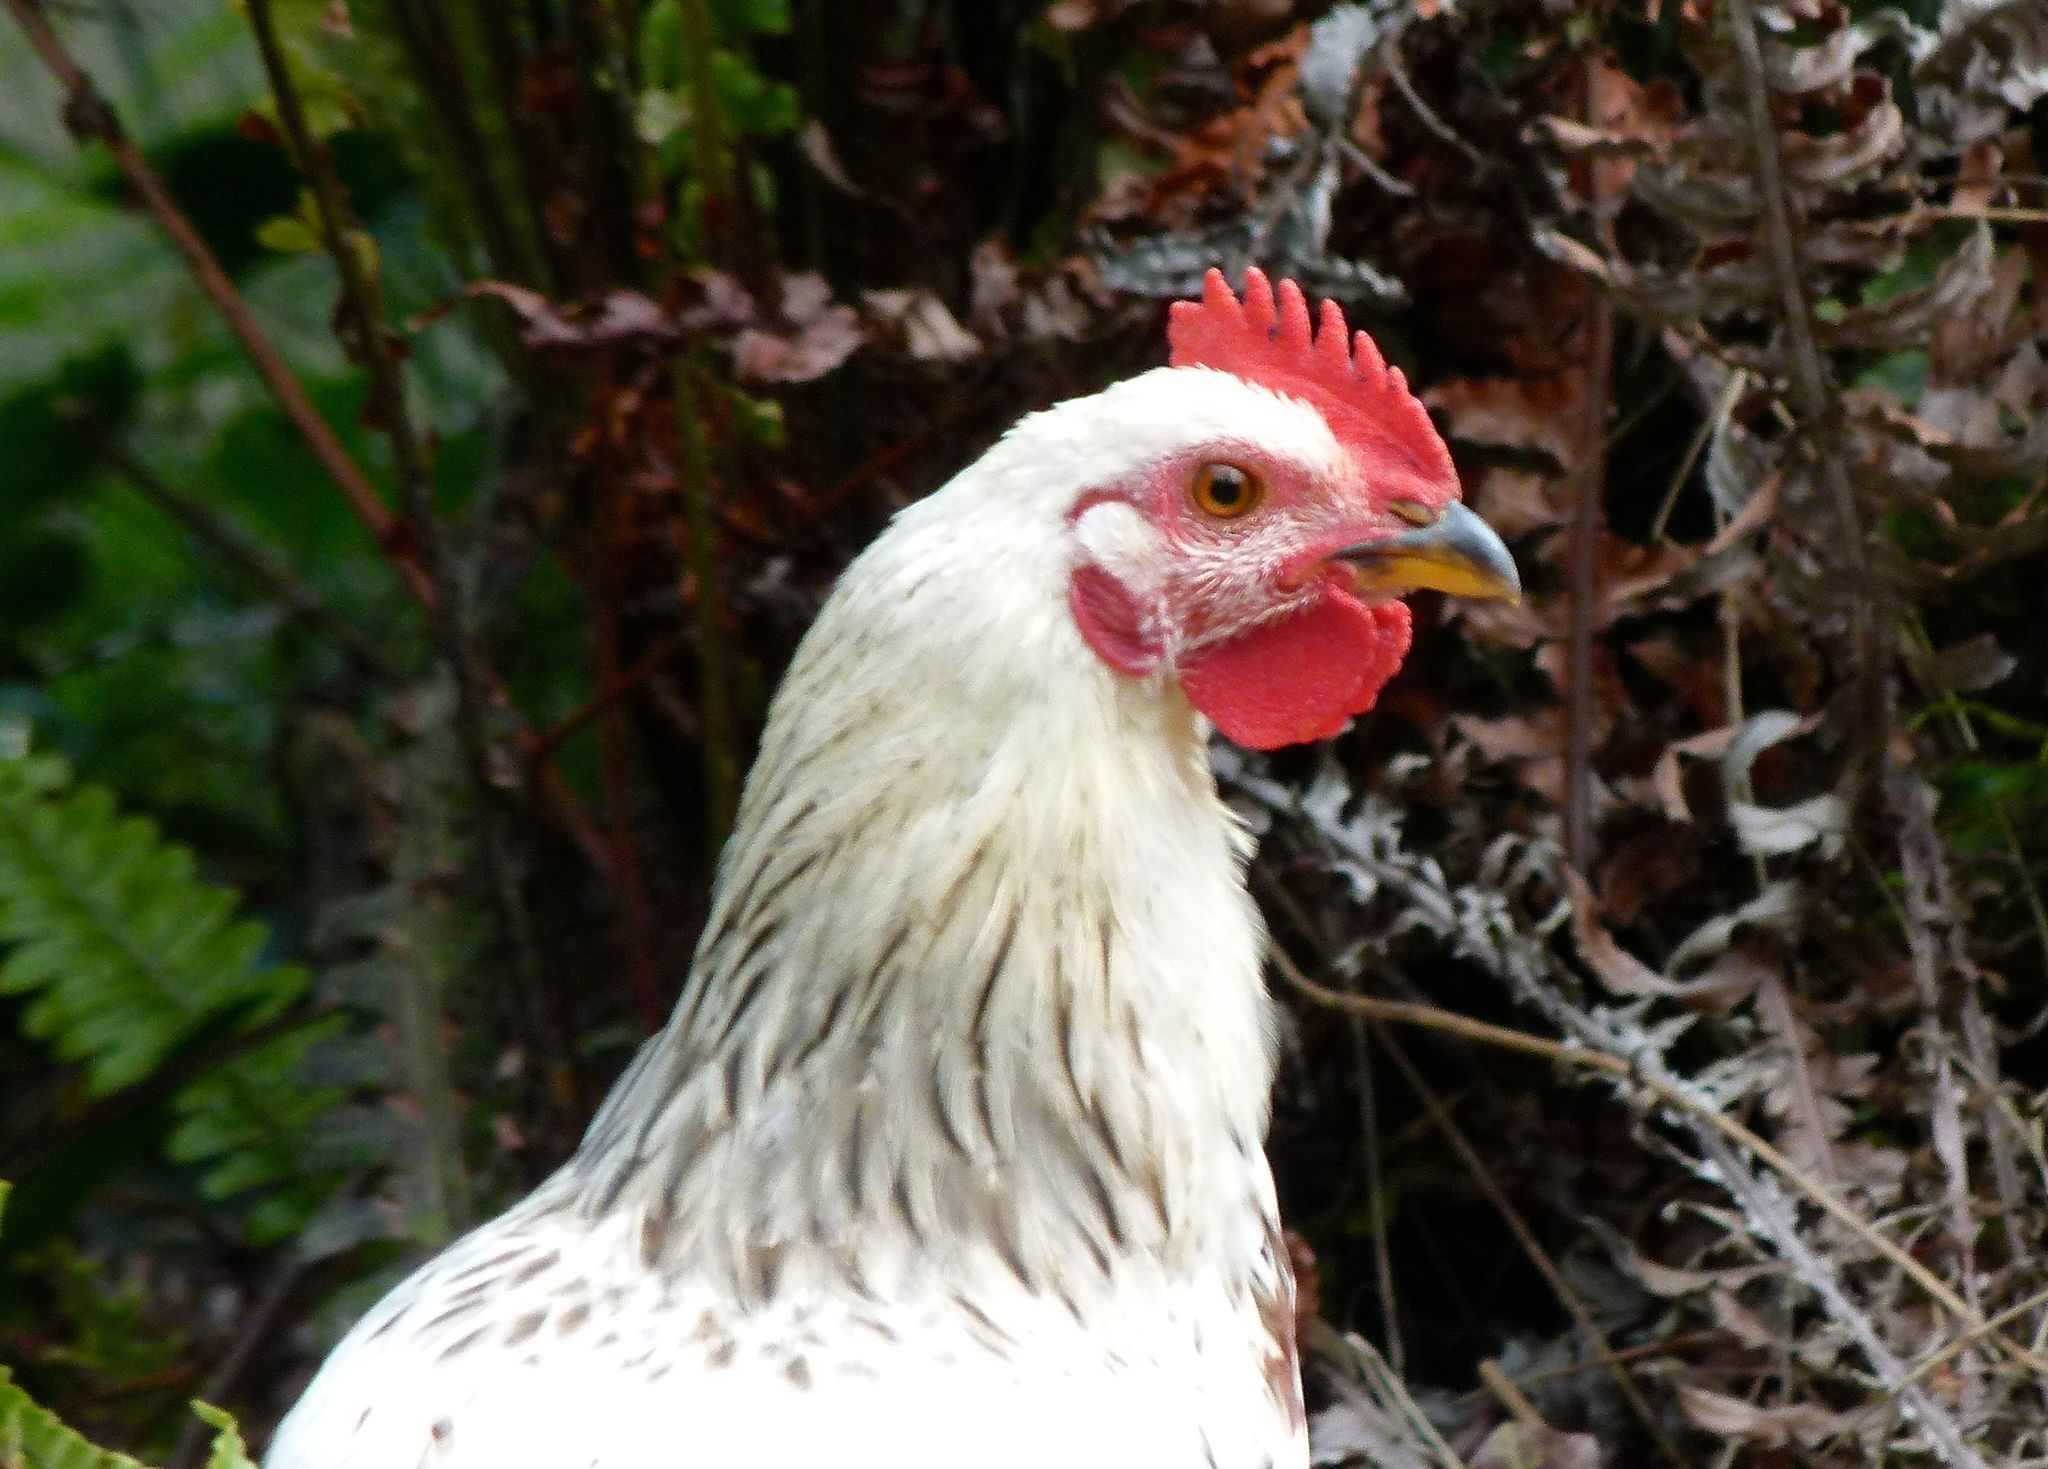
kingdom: Animalia
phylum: Chordata
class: Aves
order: Galliformes
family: Phasianidae
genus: Gallus
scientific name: Gallus gallus
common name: Red junglefowl
